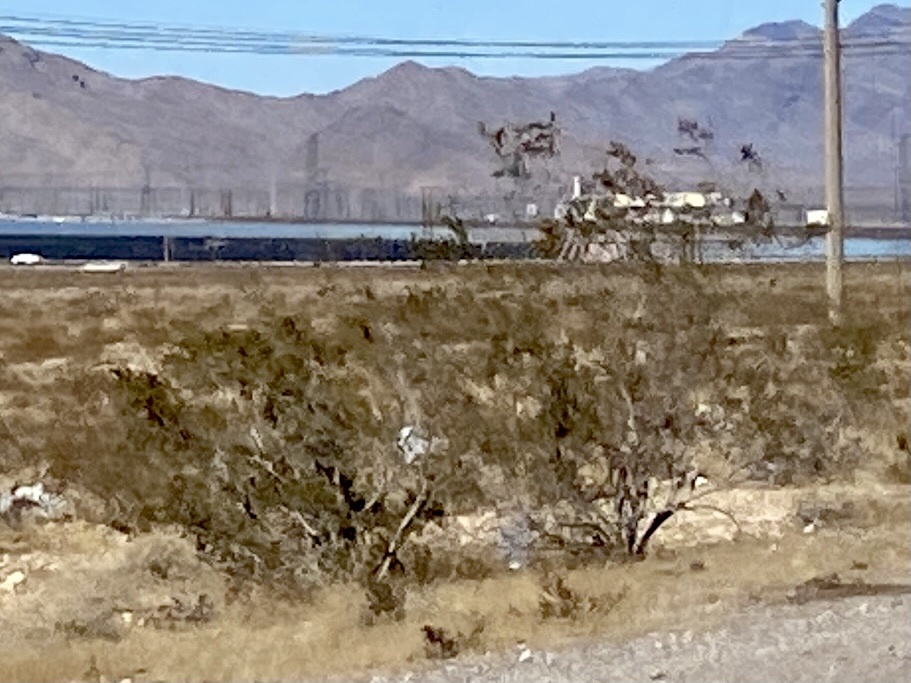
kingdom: Plantae
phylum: Tracheophyta
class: Magnoliopsida
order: Zygophyllales
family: Zygophyllaceae
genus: Larrea
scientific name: Larrea tridentata
